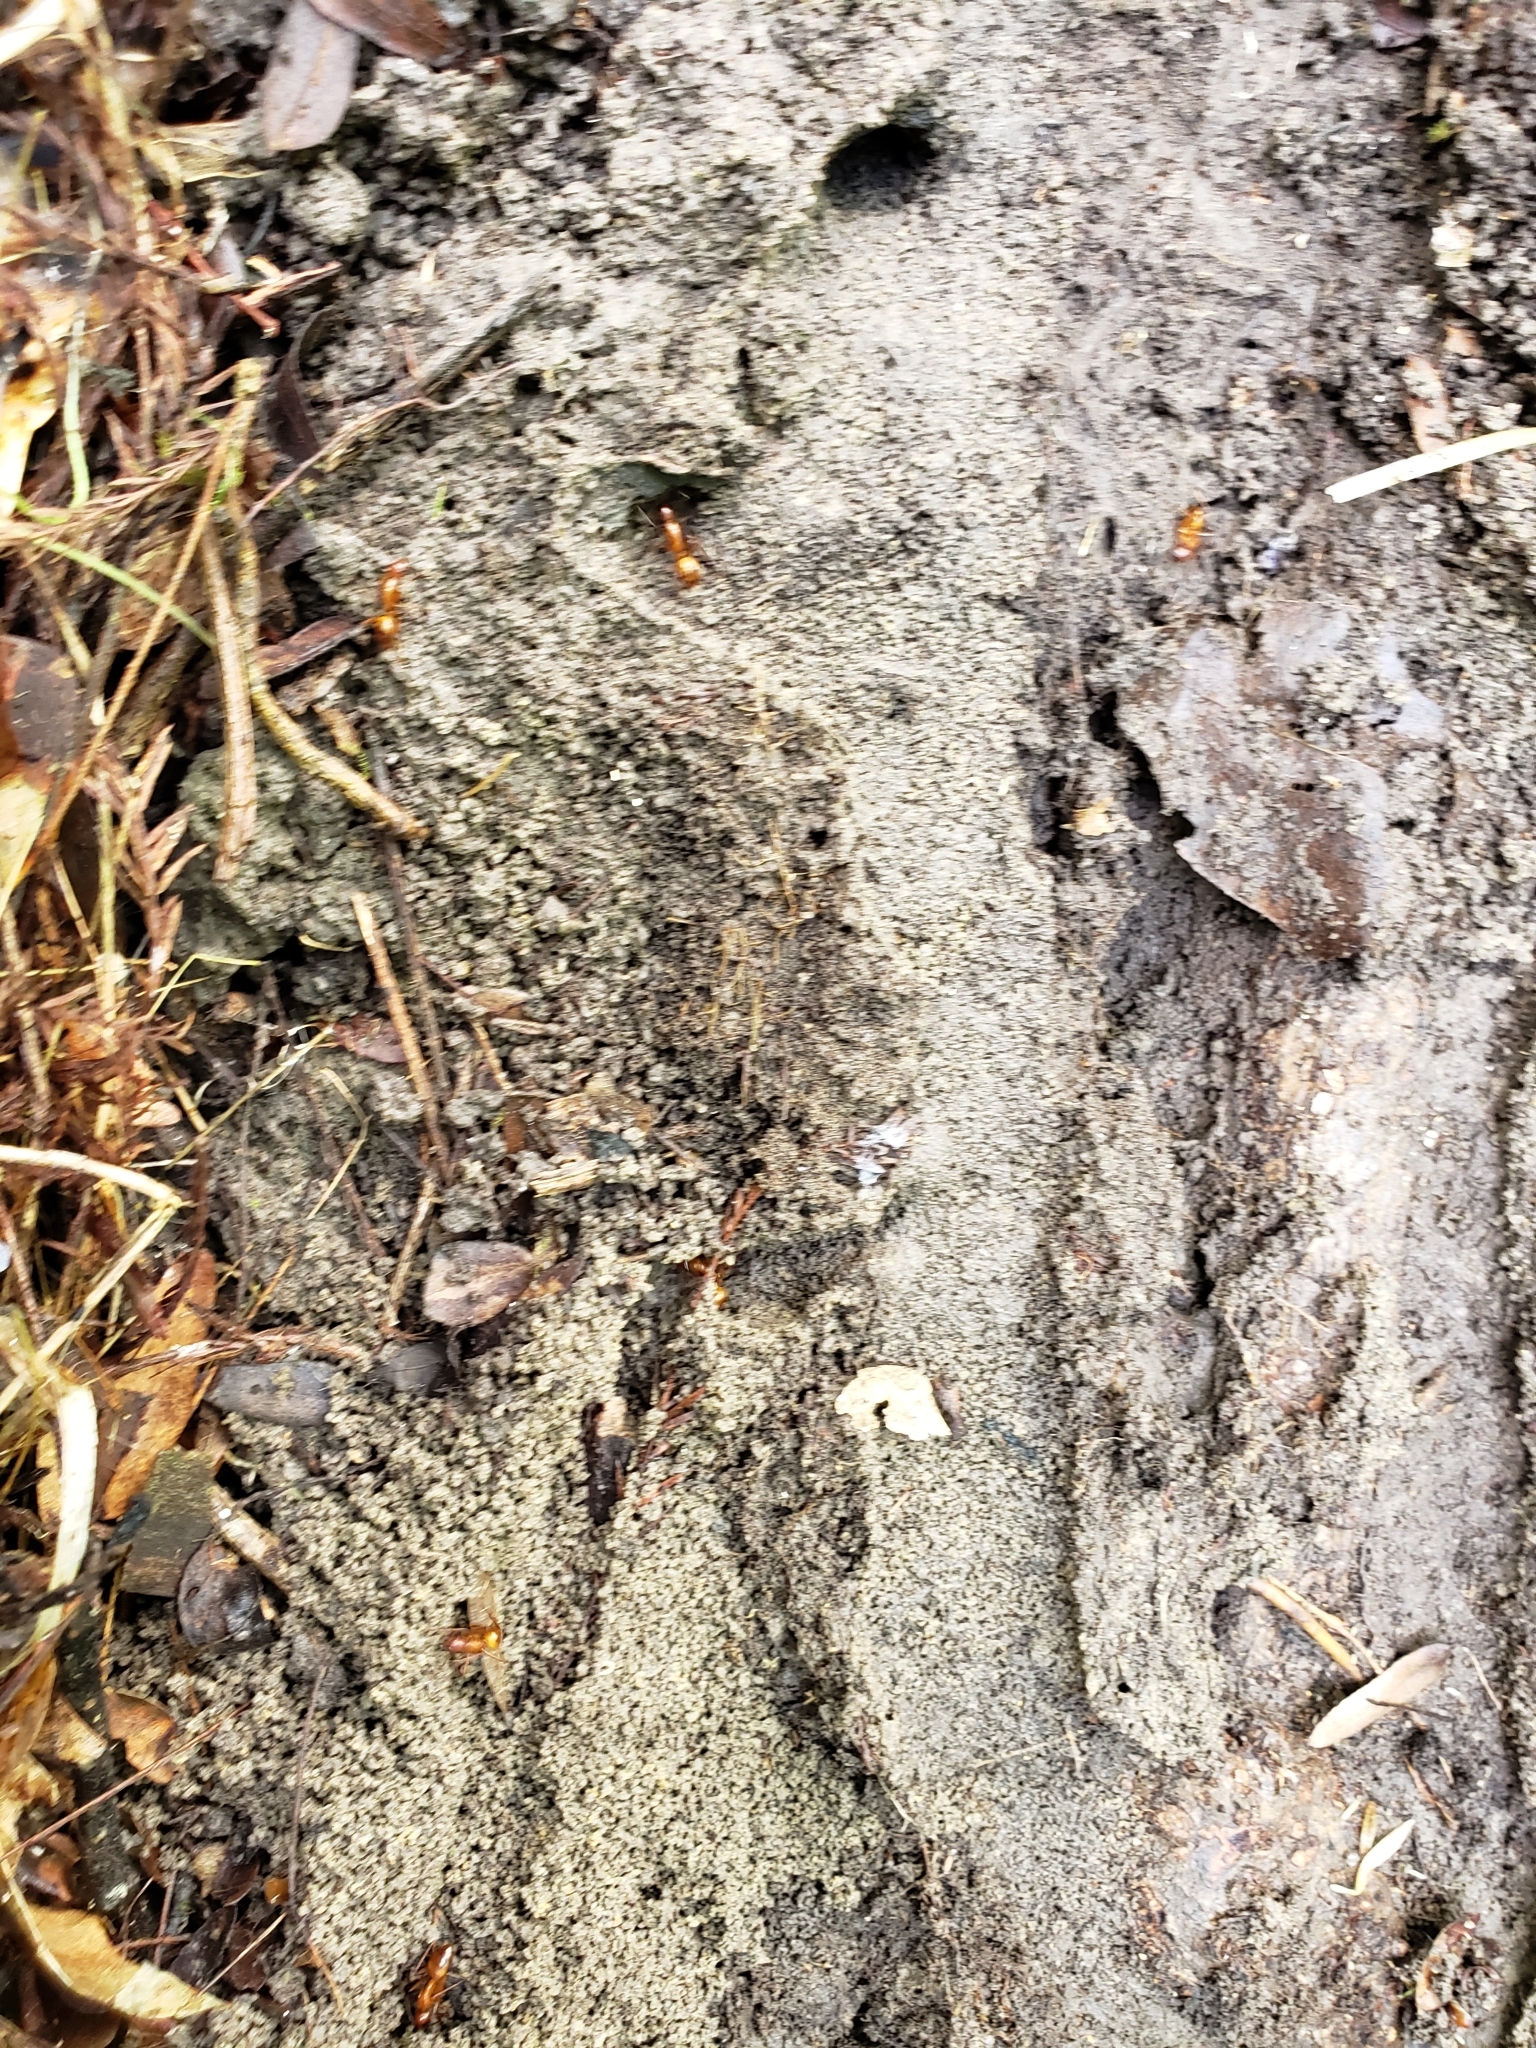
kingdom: Animalia
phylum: Arthropoda
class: Insecta
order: Hymenoptera
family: Formicidae
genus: Camponotus
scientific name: Camponotus castaneus
